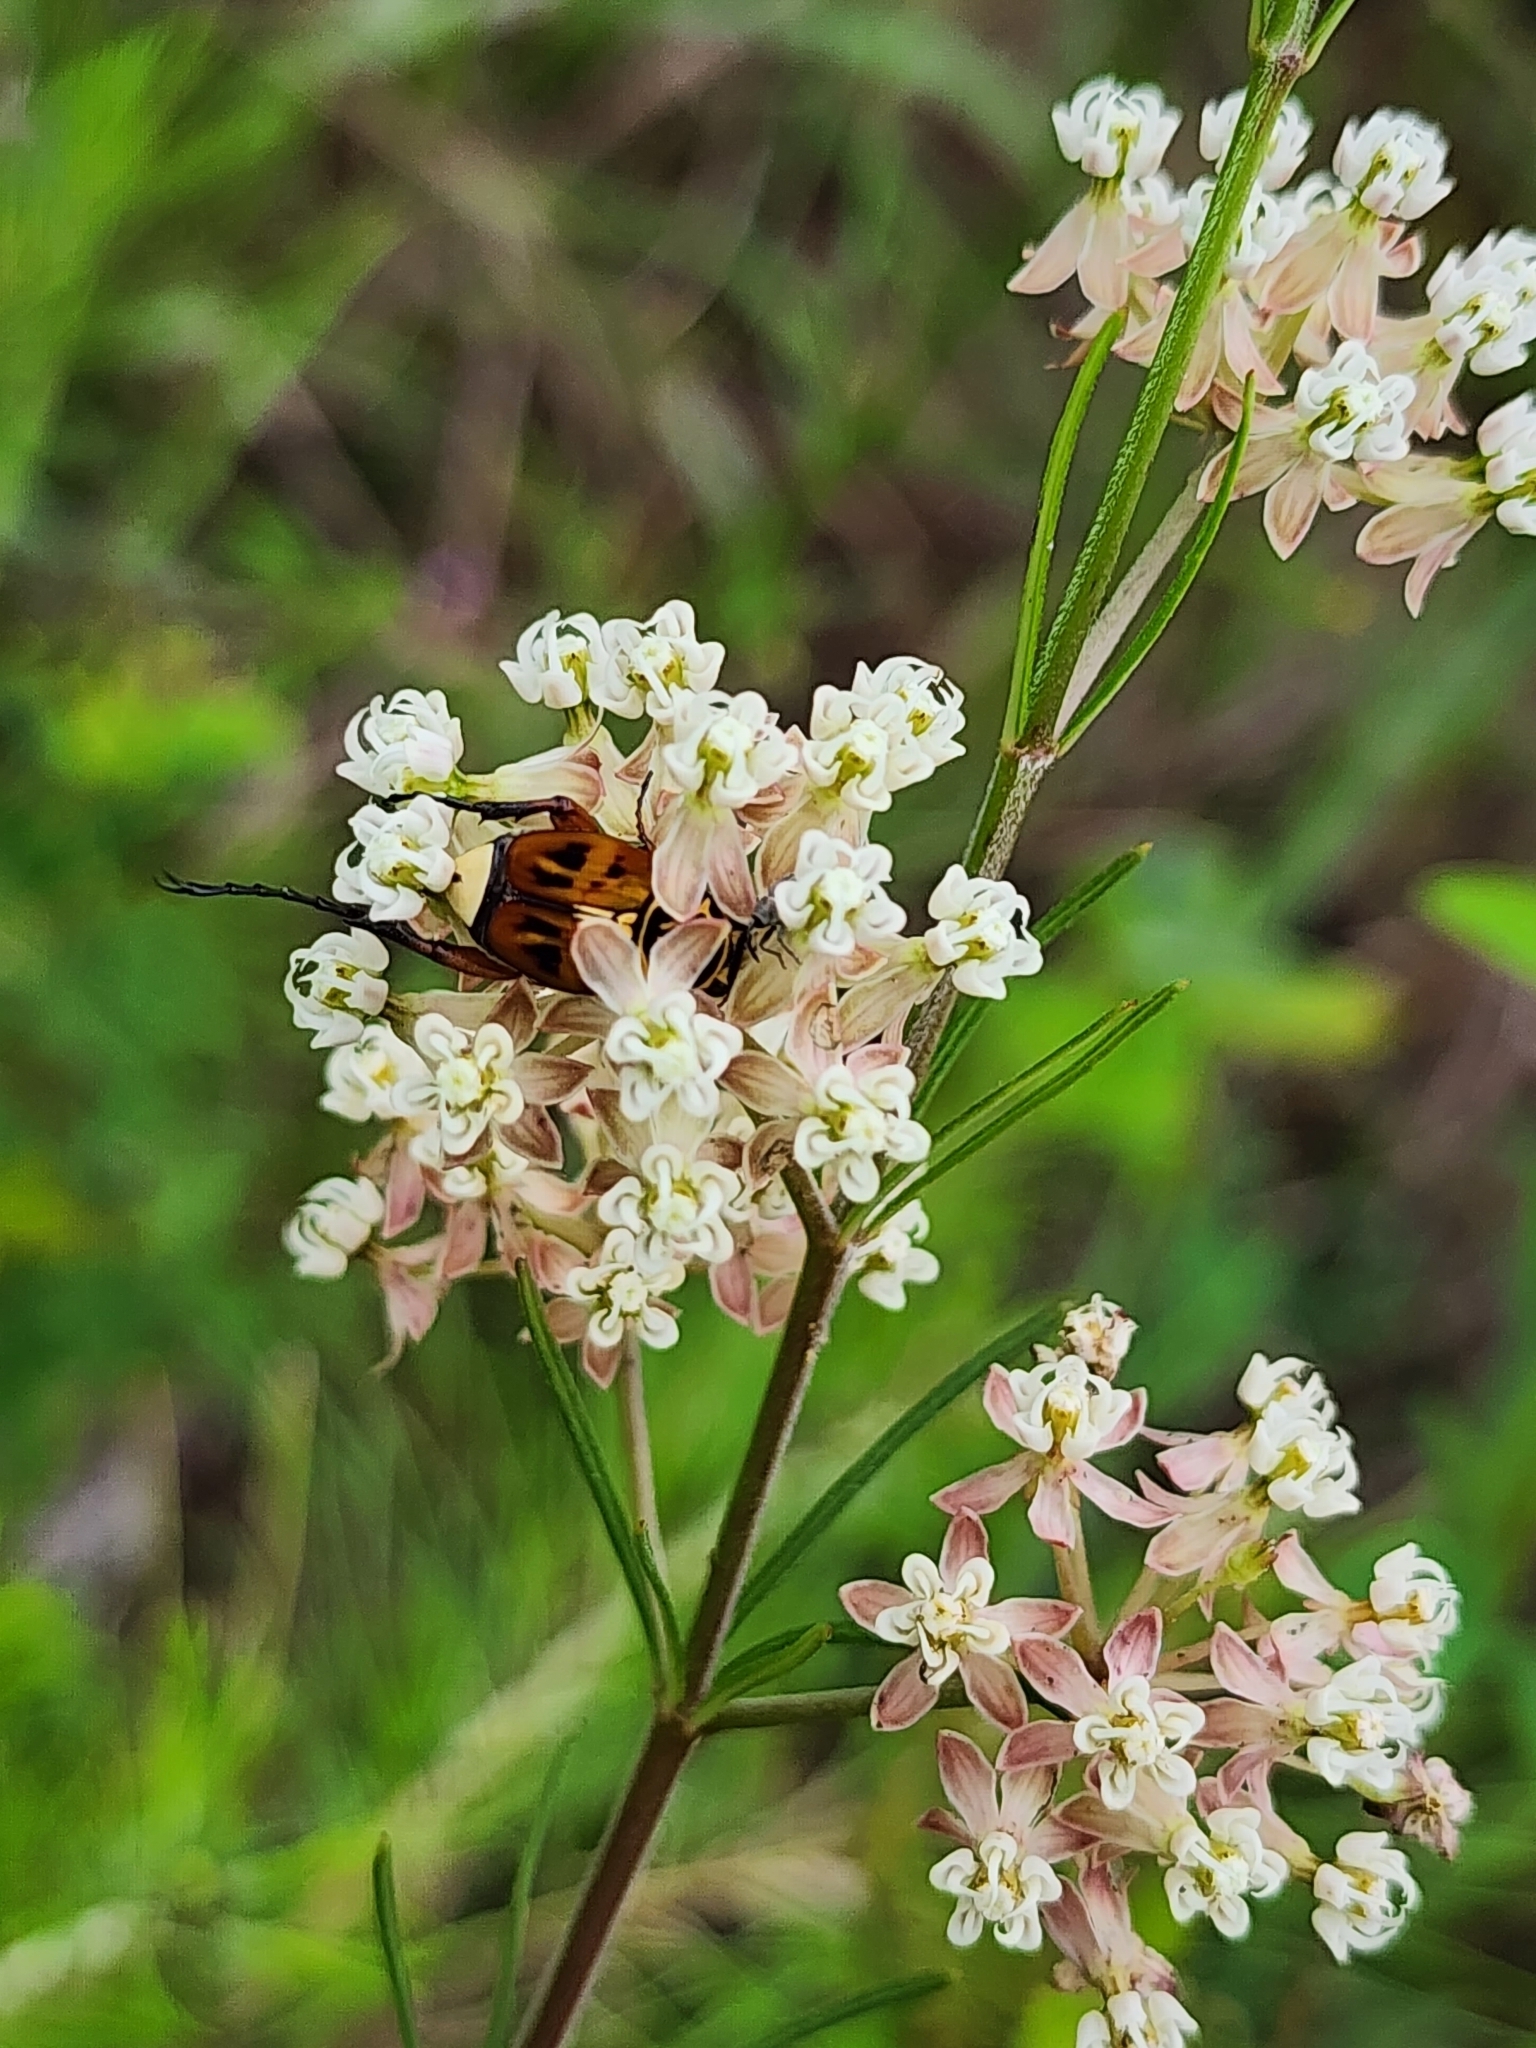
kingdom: Animalia
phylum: Arthropoda
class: Insecta
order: Coleoptera
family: Scarabaeidae
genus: Trigonopeltastes
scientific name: Trigonopeltastes delta
